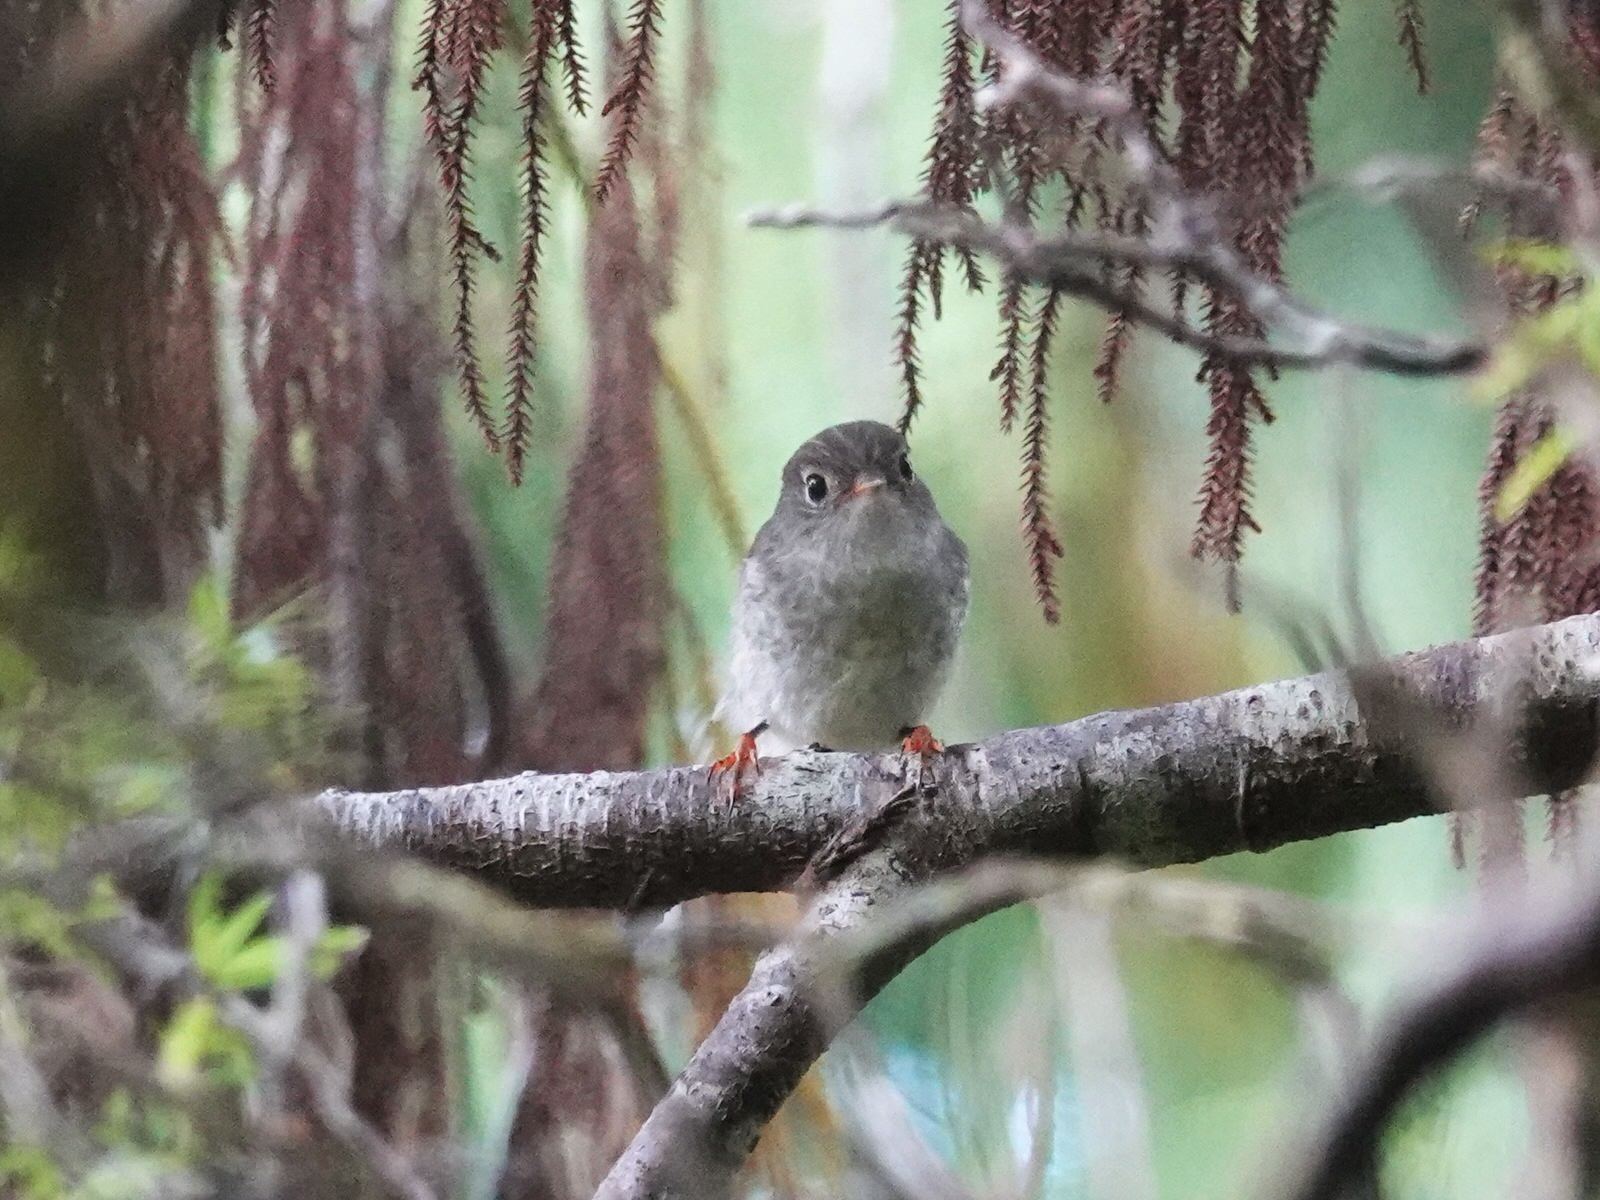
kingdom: Animalia
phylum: Chordata
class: Aves
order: Passeriformes
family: Petroicidae
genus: Petroica
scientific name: Petroica macrocephala
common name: Tomtit
